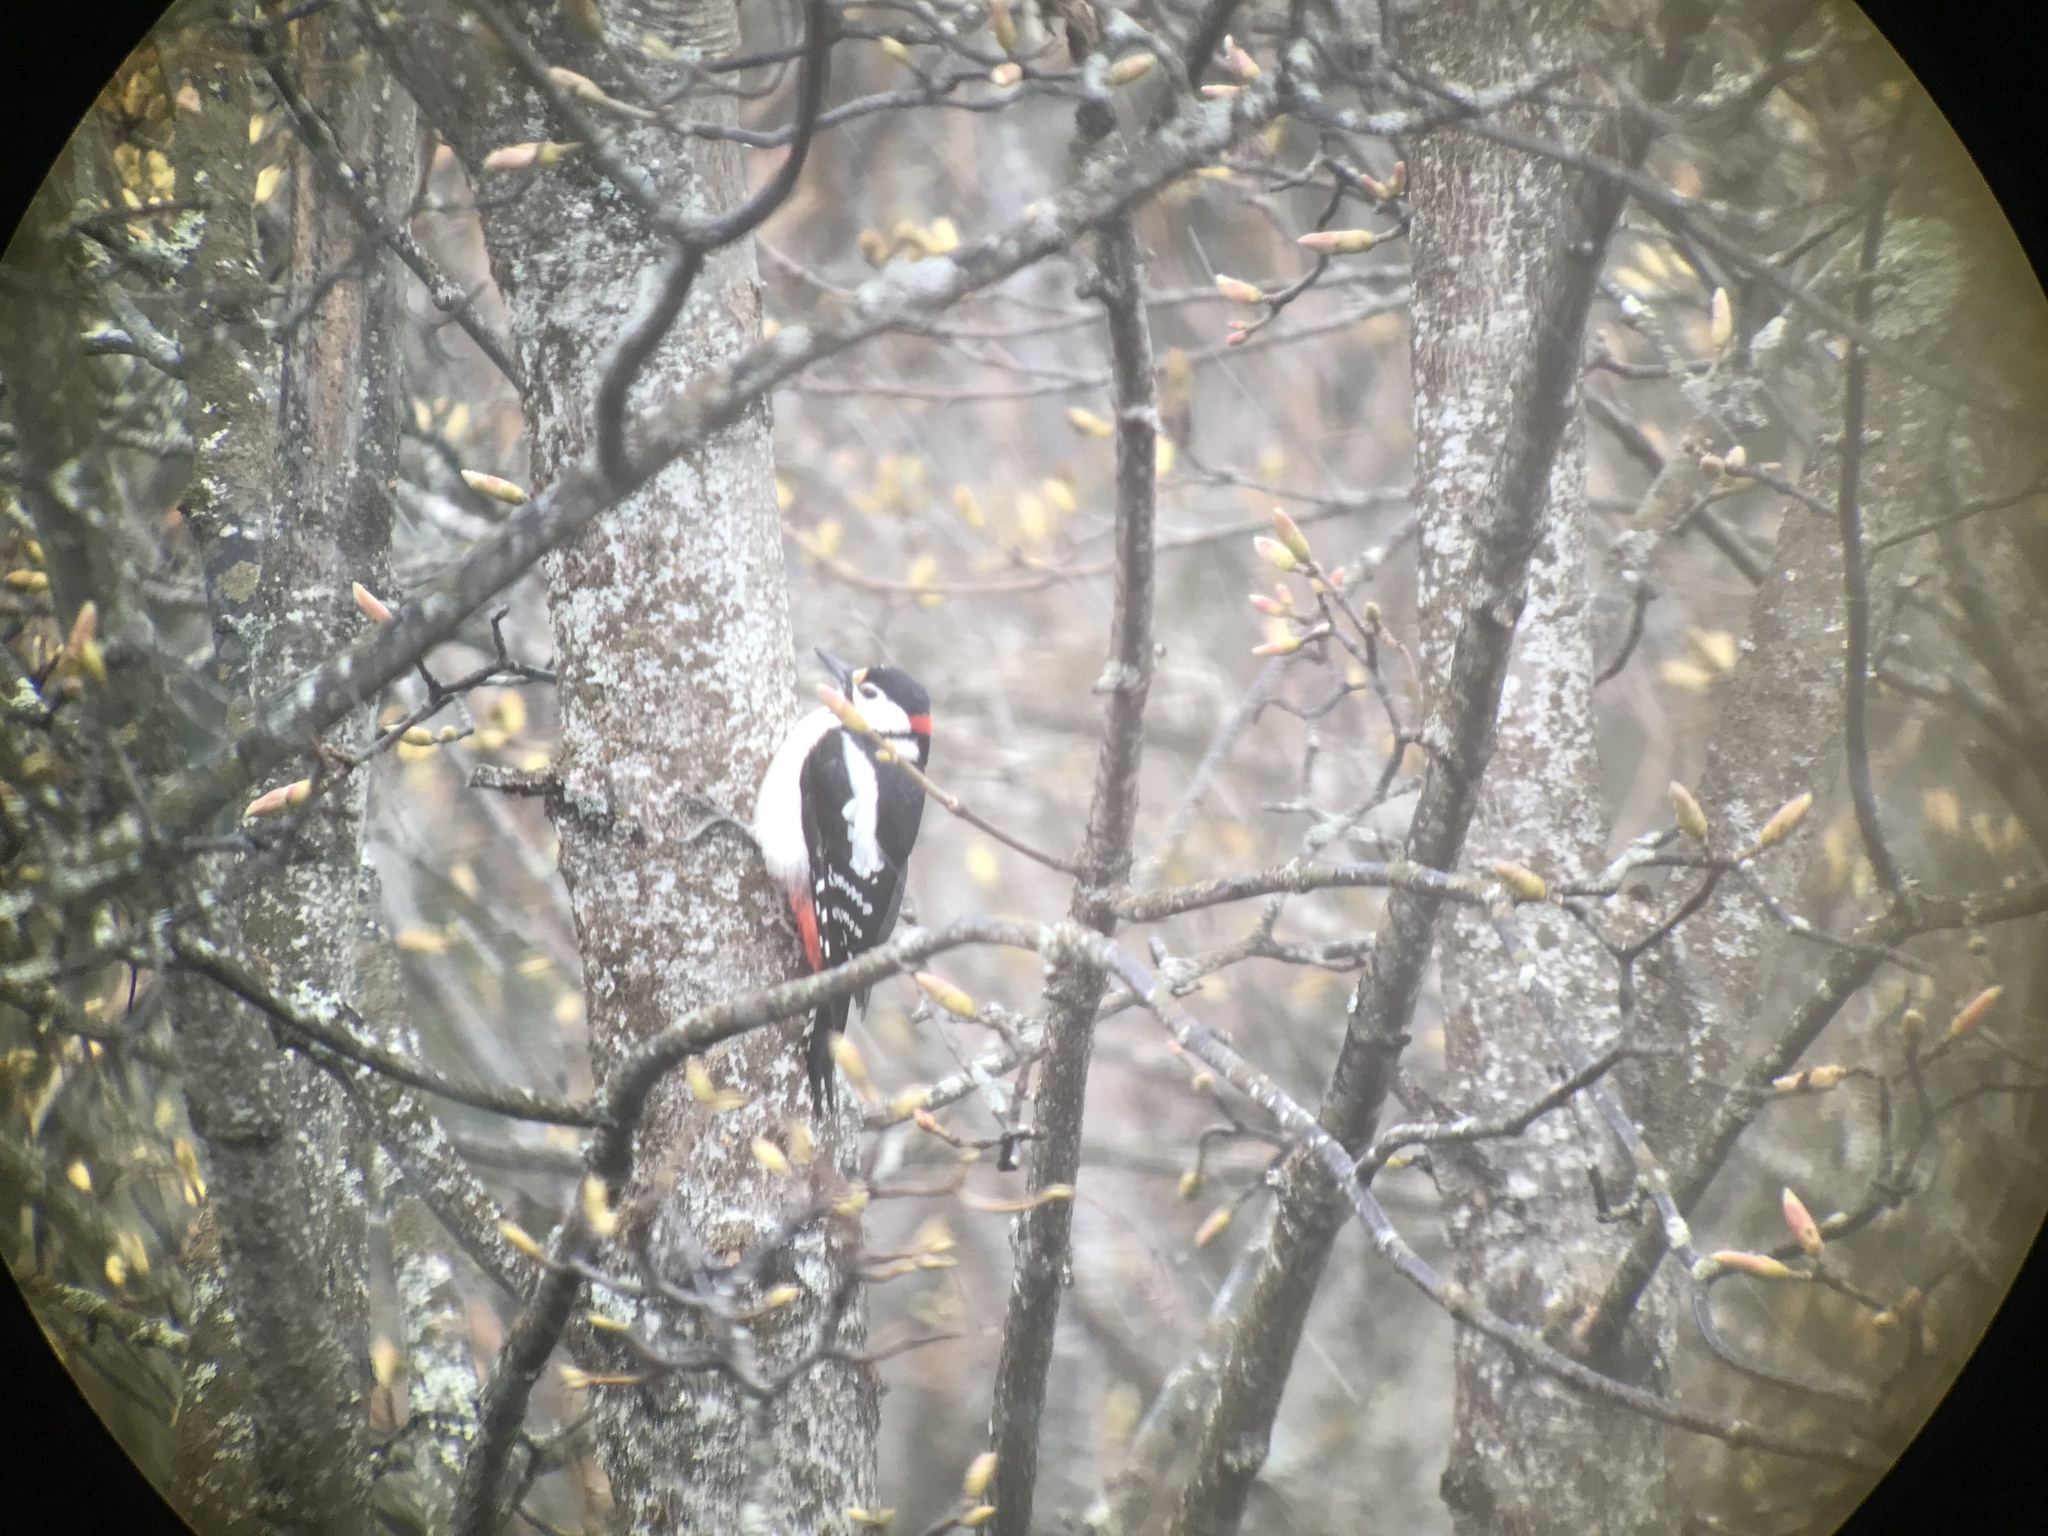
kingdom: Animalia
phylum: Chordata
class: Aves
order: Piciformes
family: Picidae
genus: Dendrocopos
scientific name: Dendrocopos major
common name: Great spotted woodpecker
